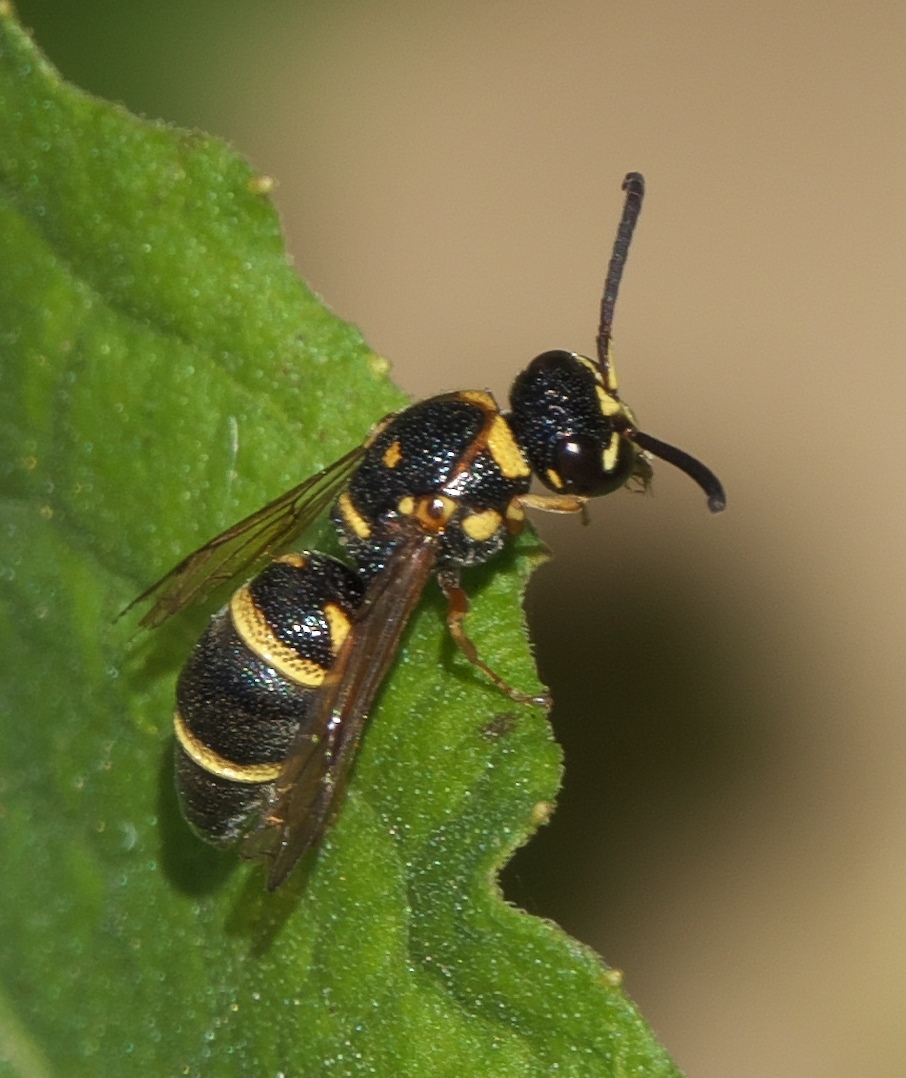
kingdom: Animalia
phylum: Arthropoda
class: Insecta
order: Hymenoptera
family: Eumenidae
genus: Parancistrocerus
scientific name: Parancistrocerus fulvipes
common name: Potter wasp
